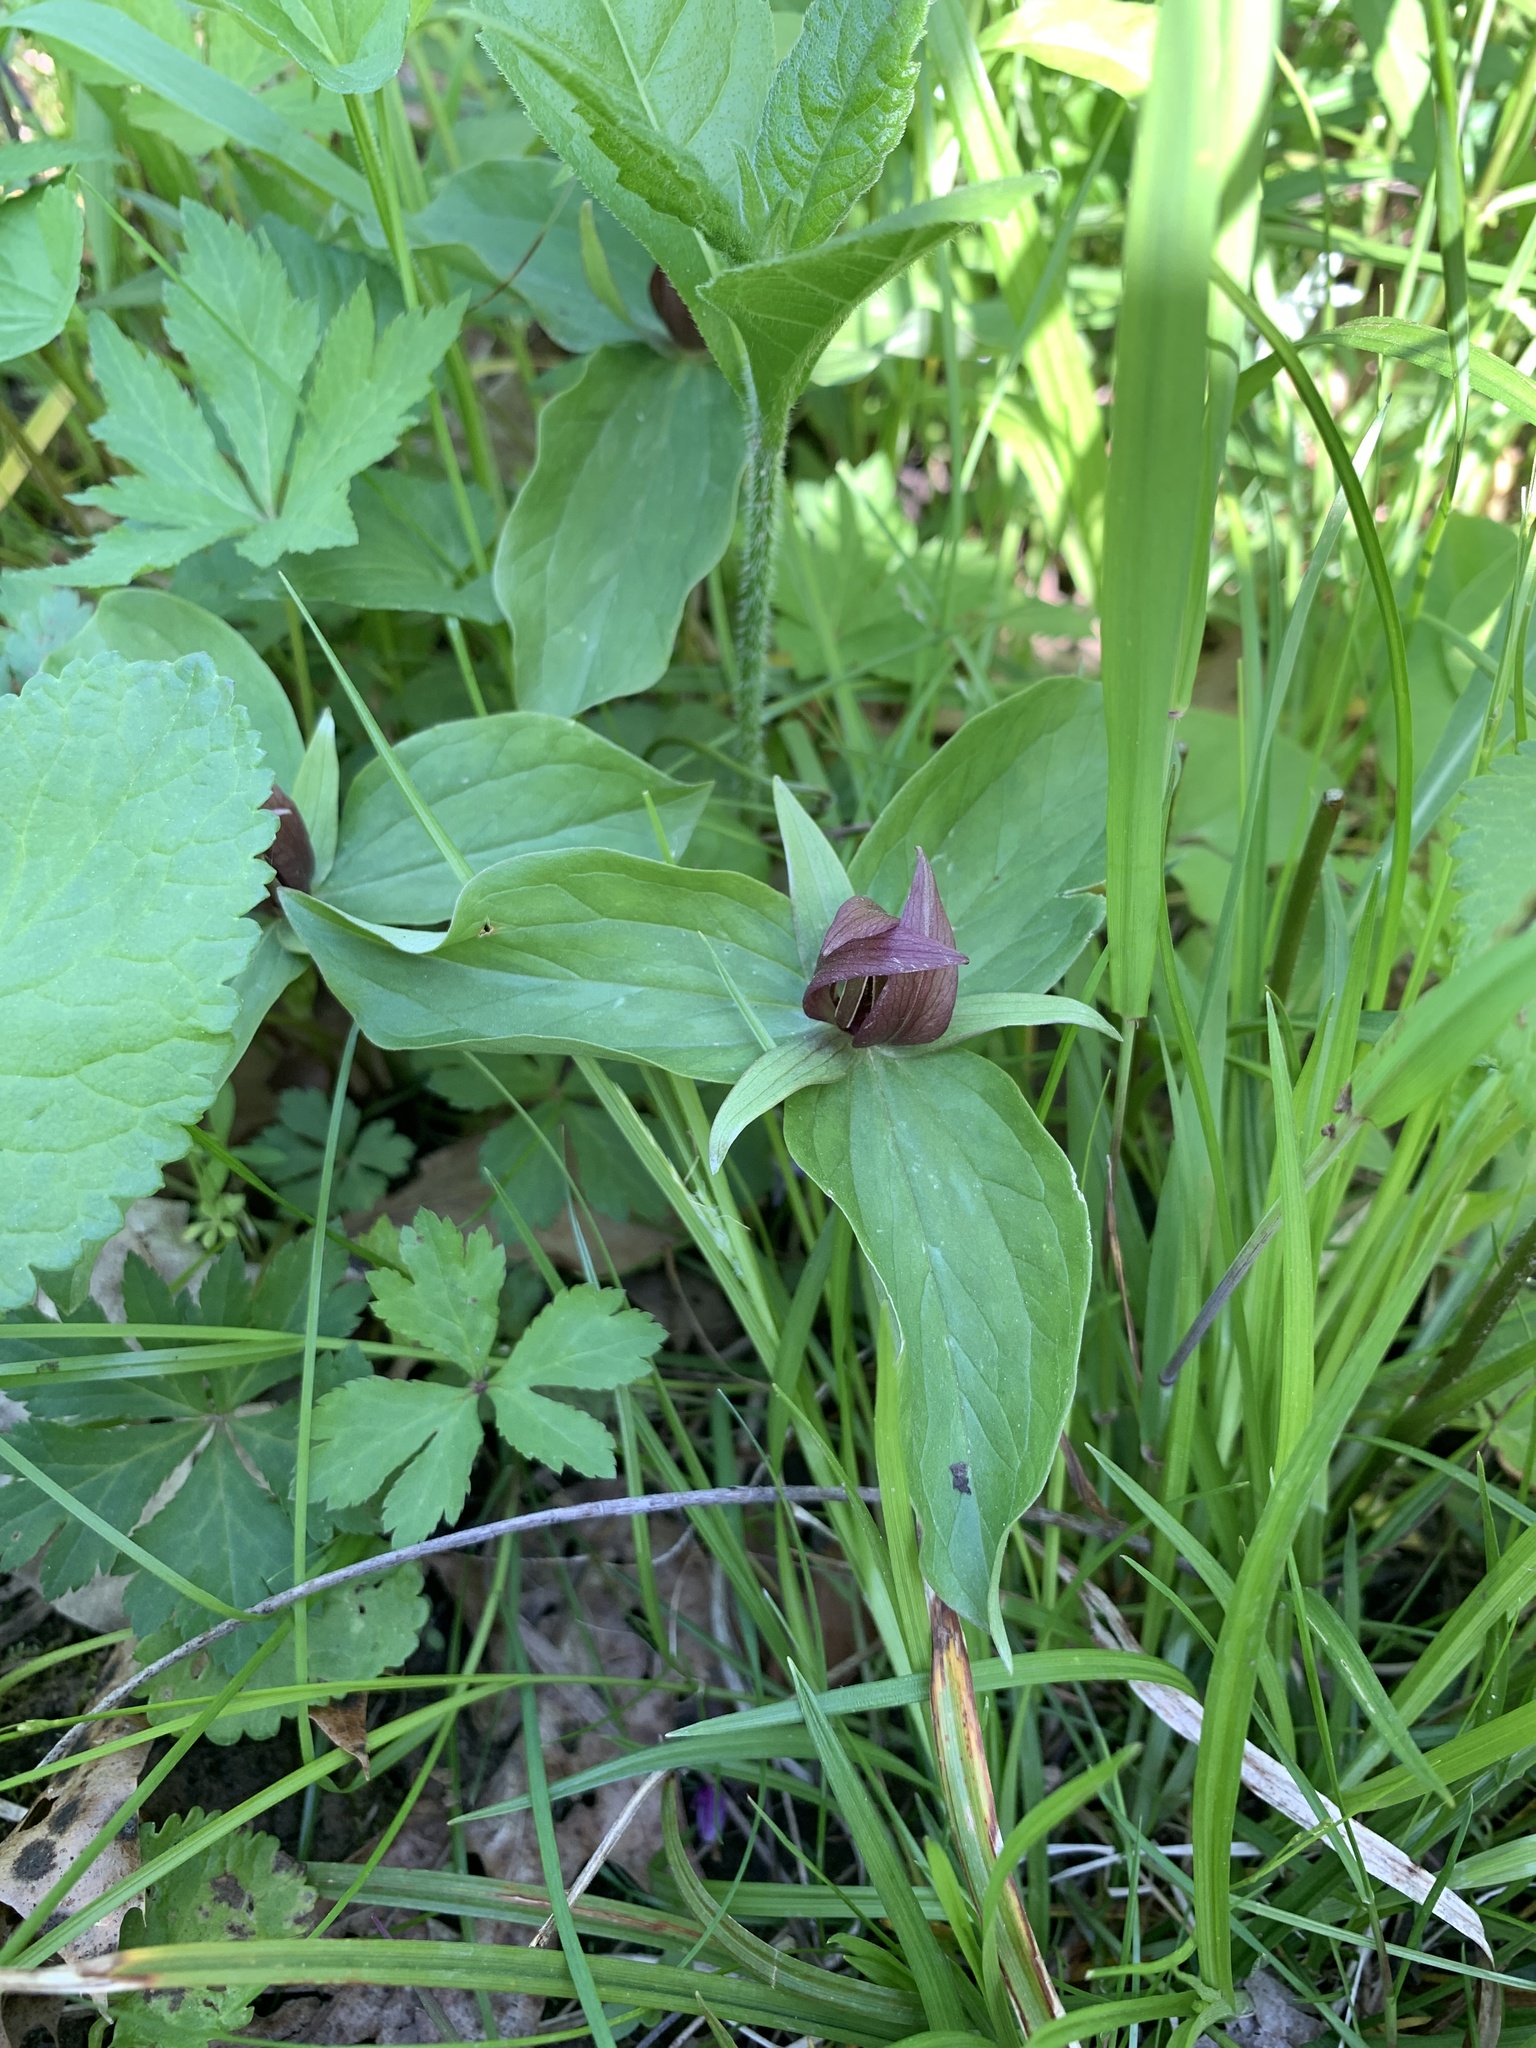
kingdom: Plantae
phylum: Tracheophyta
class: Liliopsida
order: Liliales
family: Melanthiaceae
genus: Trillium
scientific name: Trillium sessile
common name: Sessile trillium
